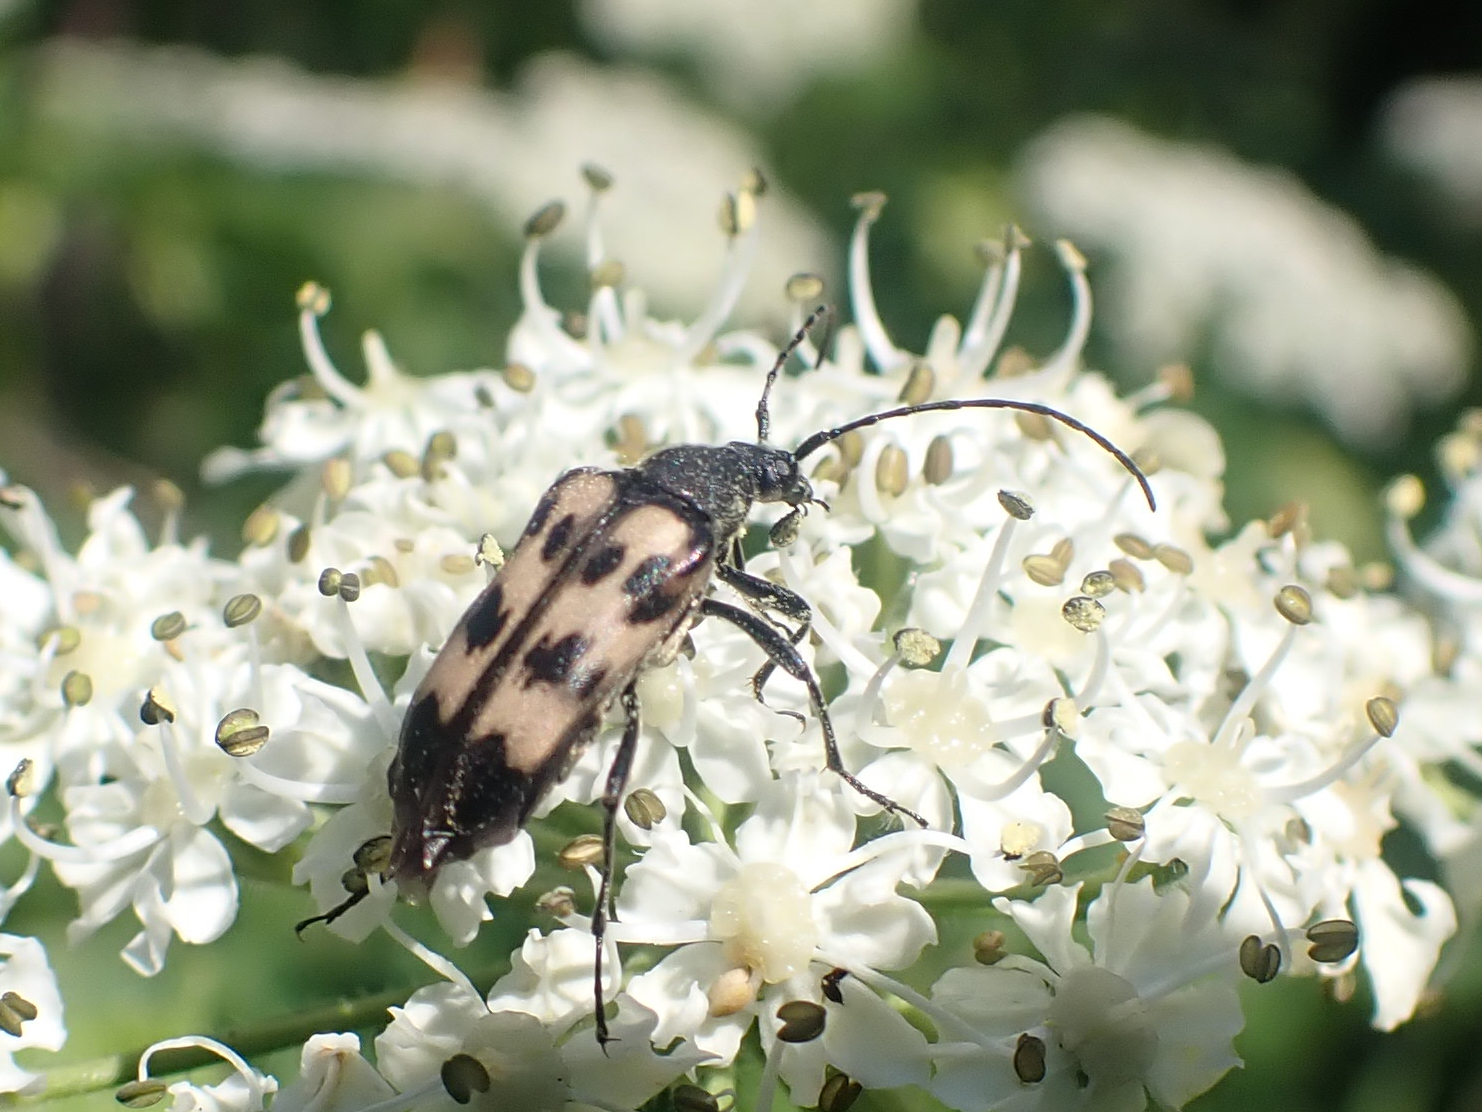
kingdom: Animalia
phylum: Arthropoda
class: Insecta
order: Coleoptera
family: Cerambycidae
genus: Judolia
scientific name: Judolia montivagans
